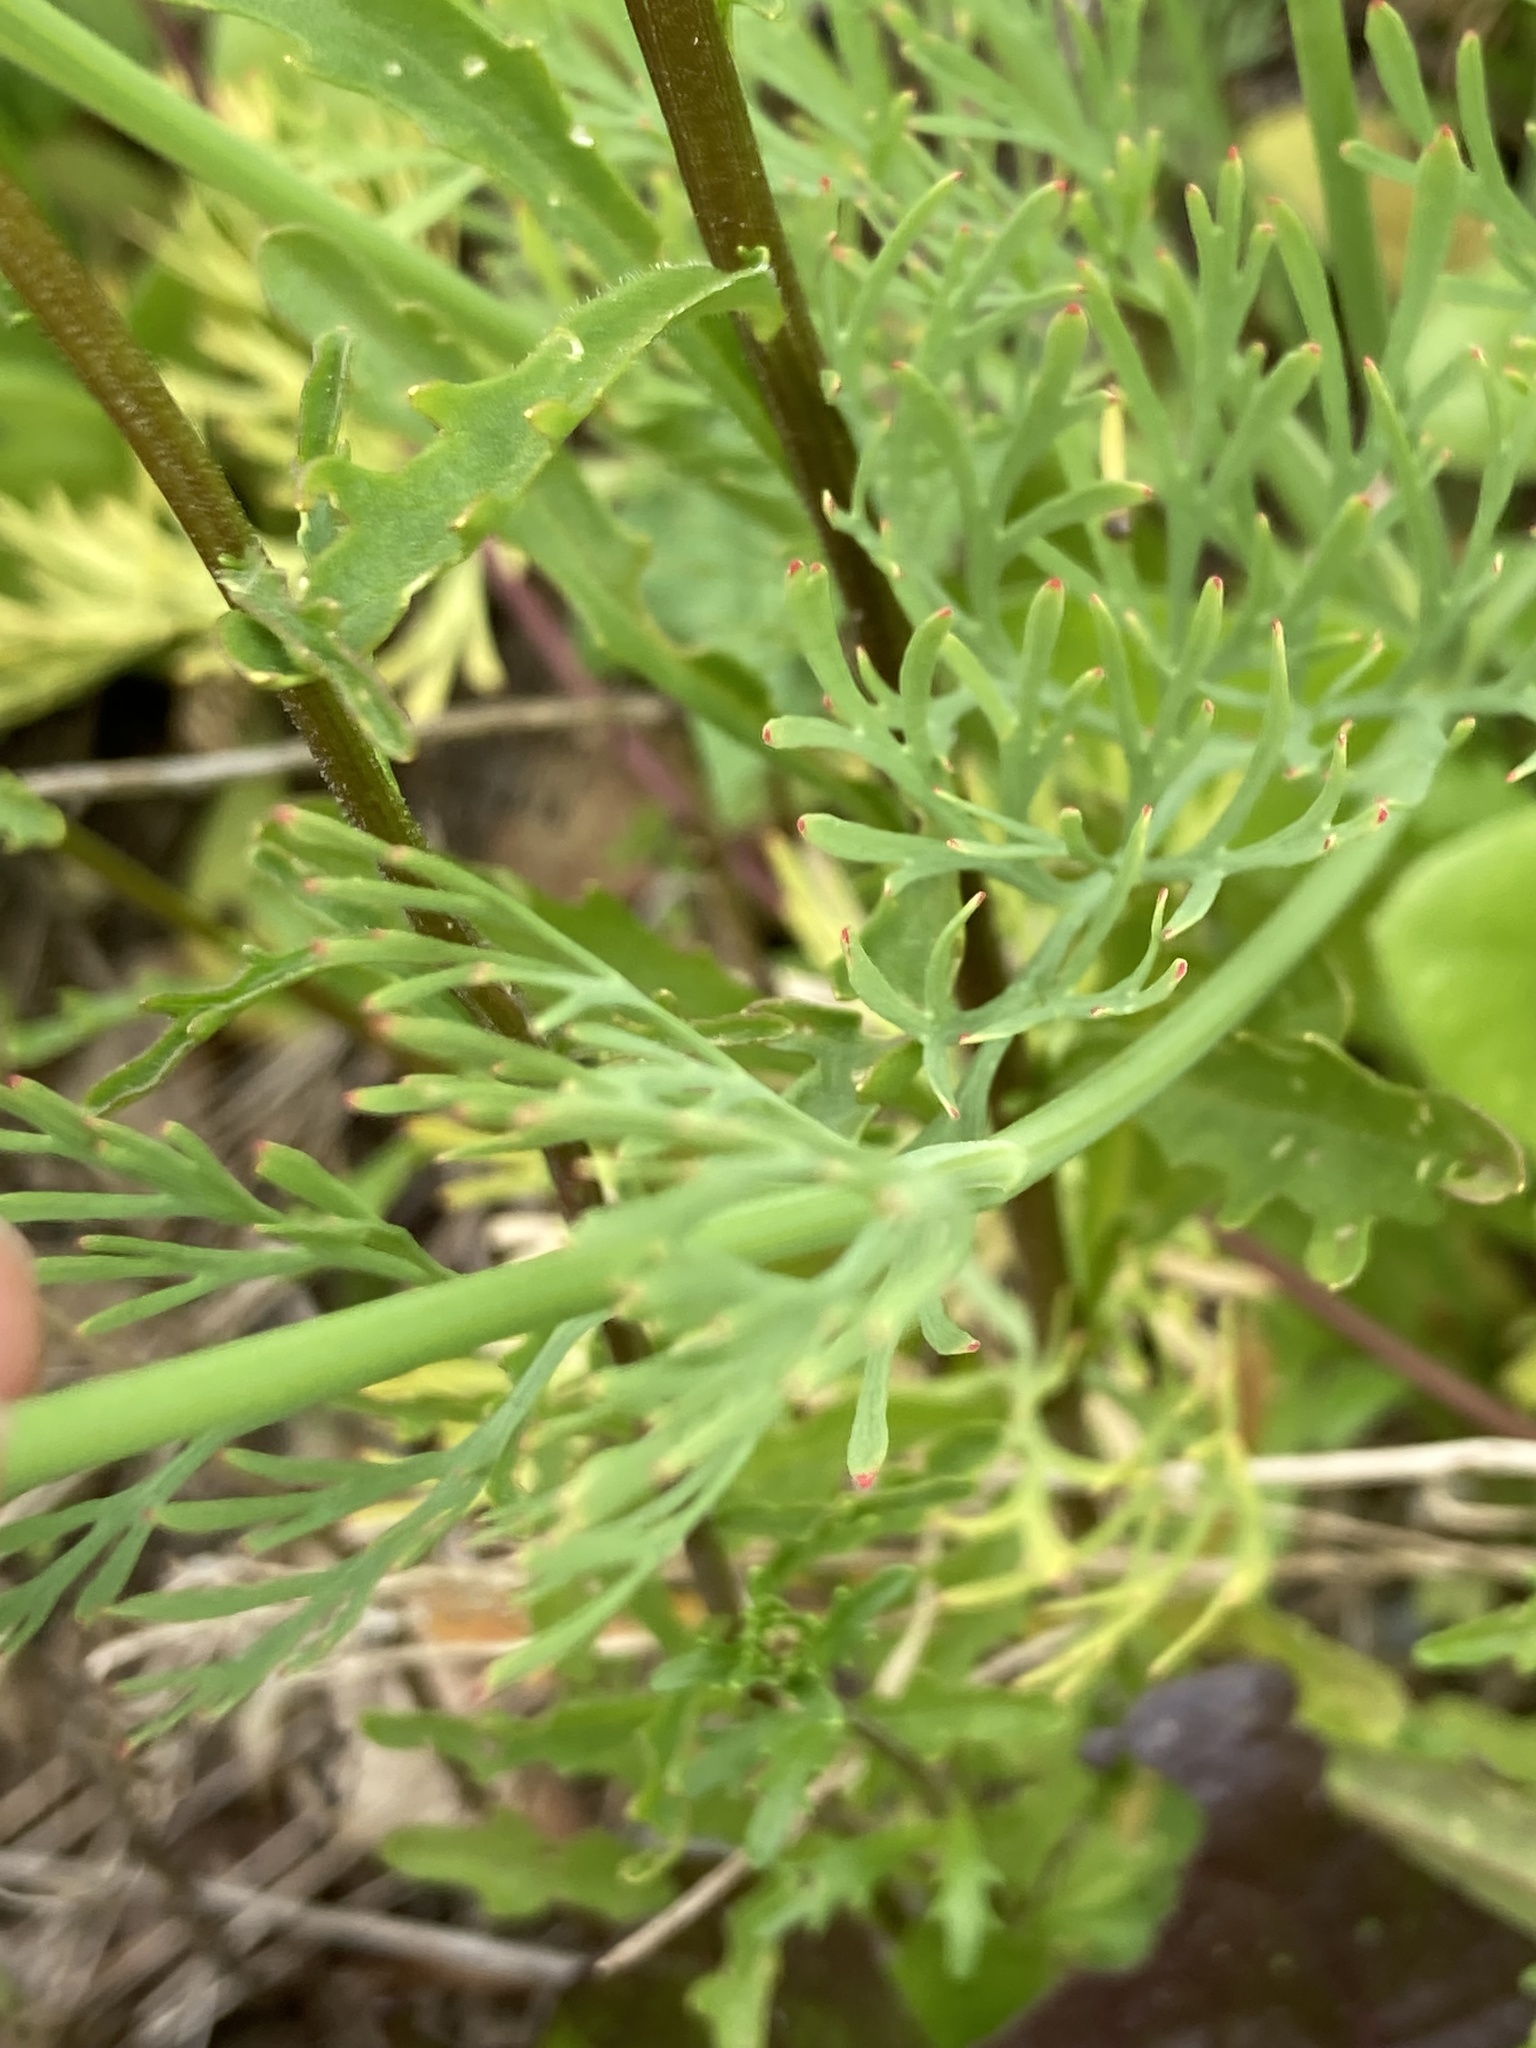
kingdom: Plantae
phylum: Tracheophyta
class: Magnoliopsida
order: Ranunculales
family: Papaveraceae
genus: Eschscholzia
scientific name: Eschscholzia californica
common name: California poppy
